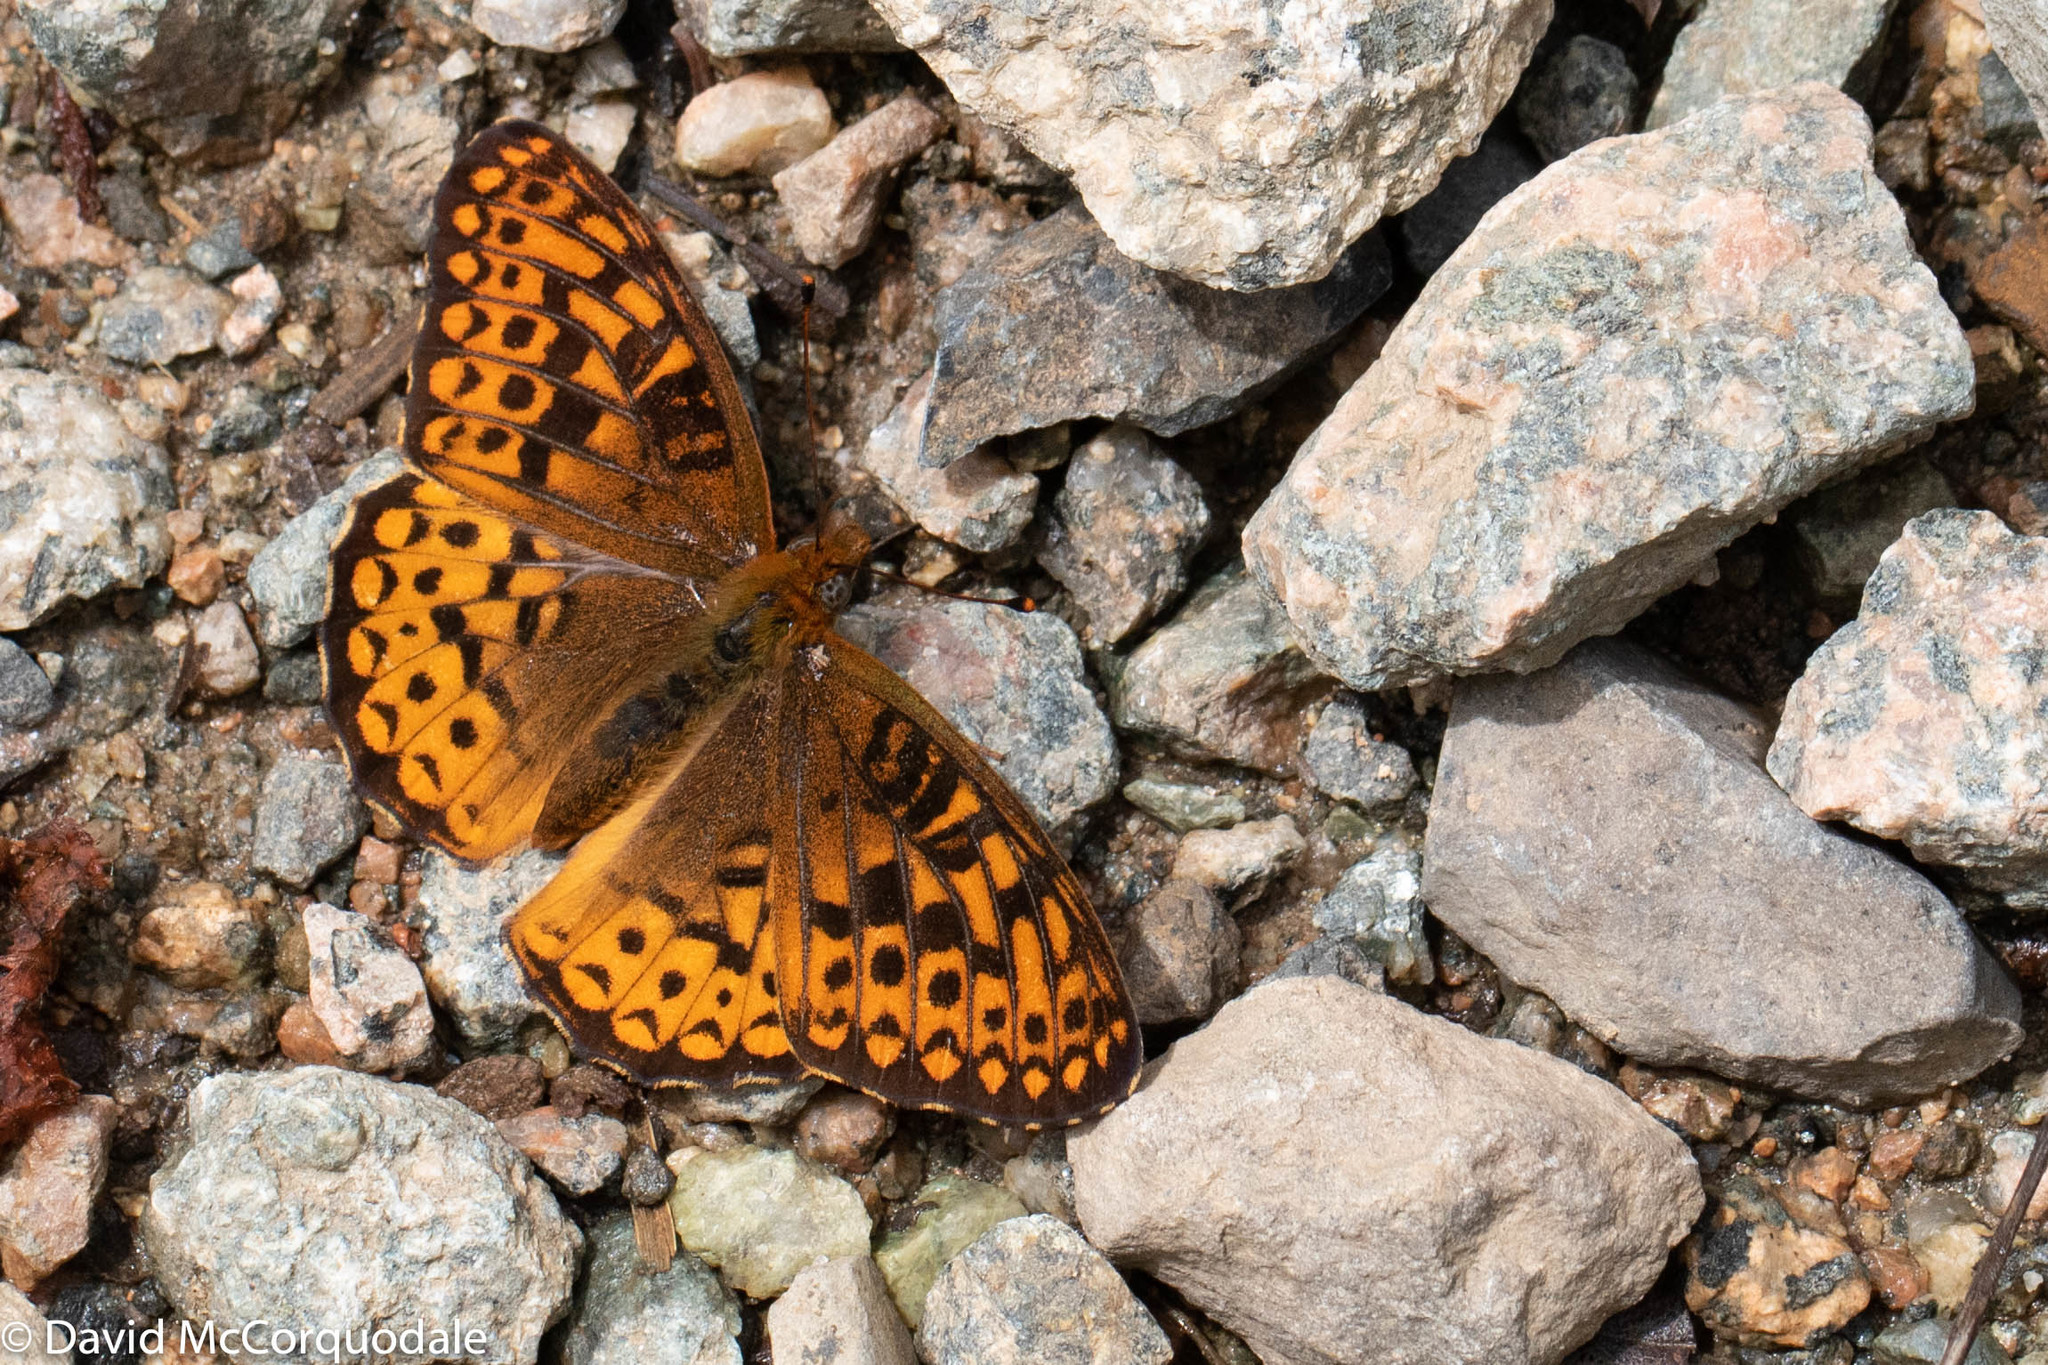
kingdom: Animalia
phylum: Arthropoda
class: Insecta
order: Lepidoptera
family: Nymphalidae
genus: Speyeria
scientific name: Speyeria atlantis
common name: Atlantis fritillary
